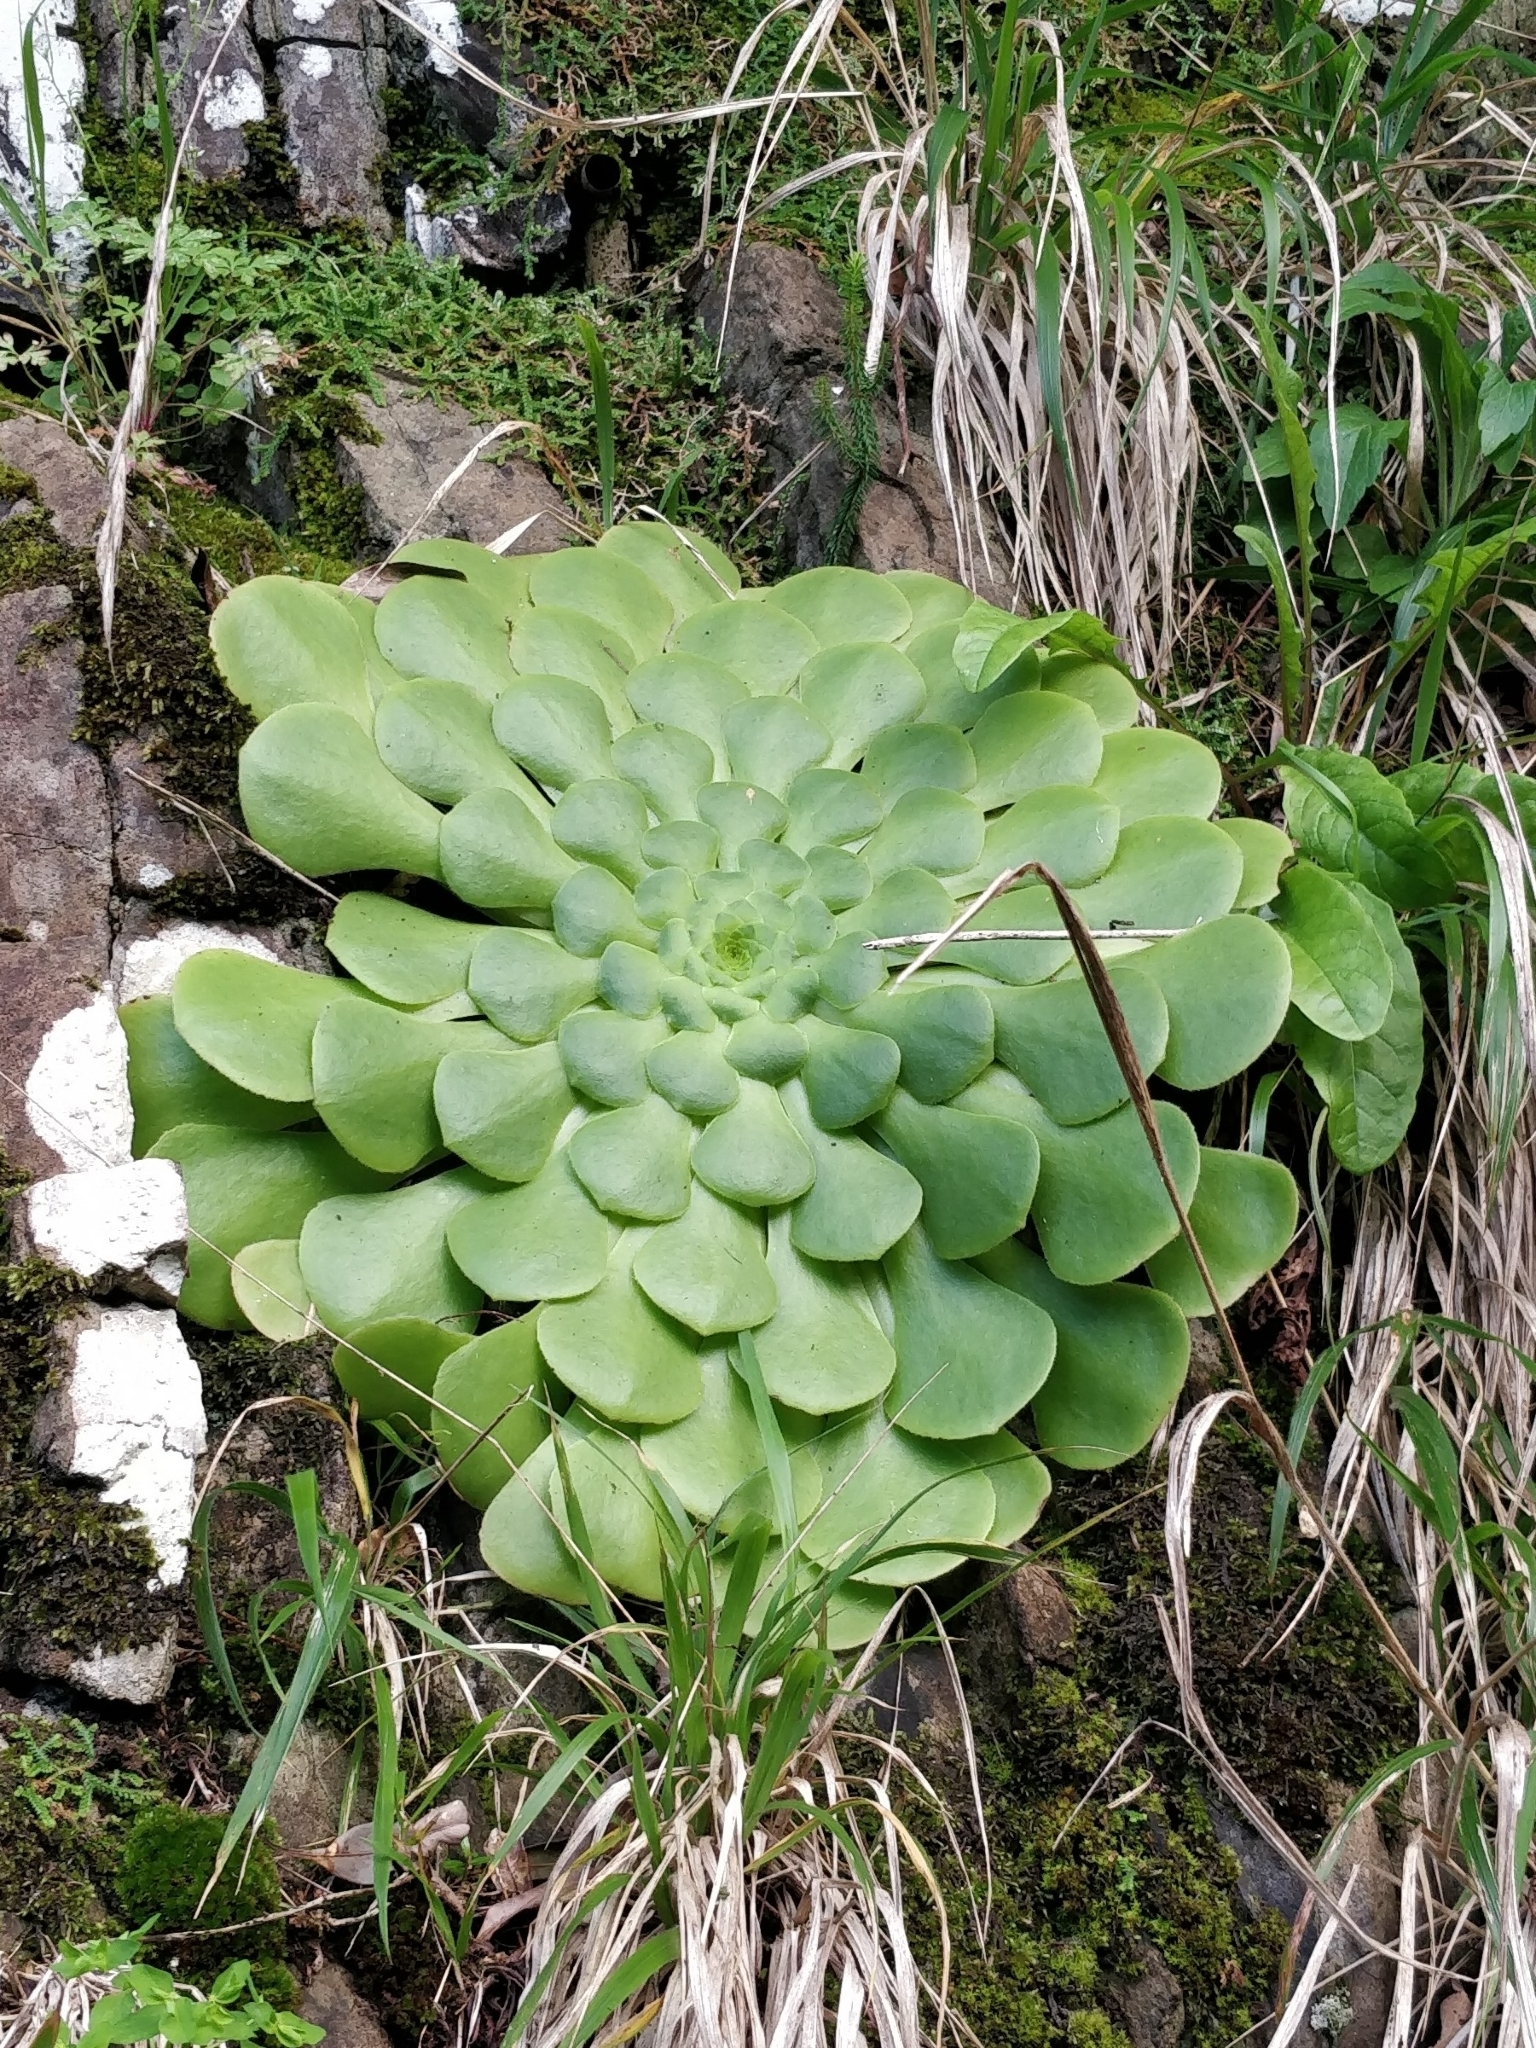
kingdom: Plantae
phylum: Tracheophyta
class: Magnoliopsida
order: Saxifragales
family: Crassulaceae
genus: Aeonium
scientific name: Aeonium glandulosum
